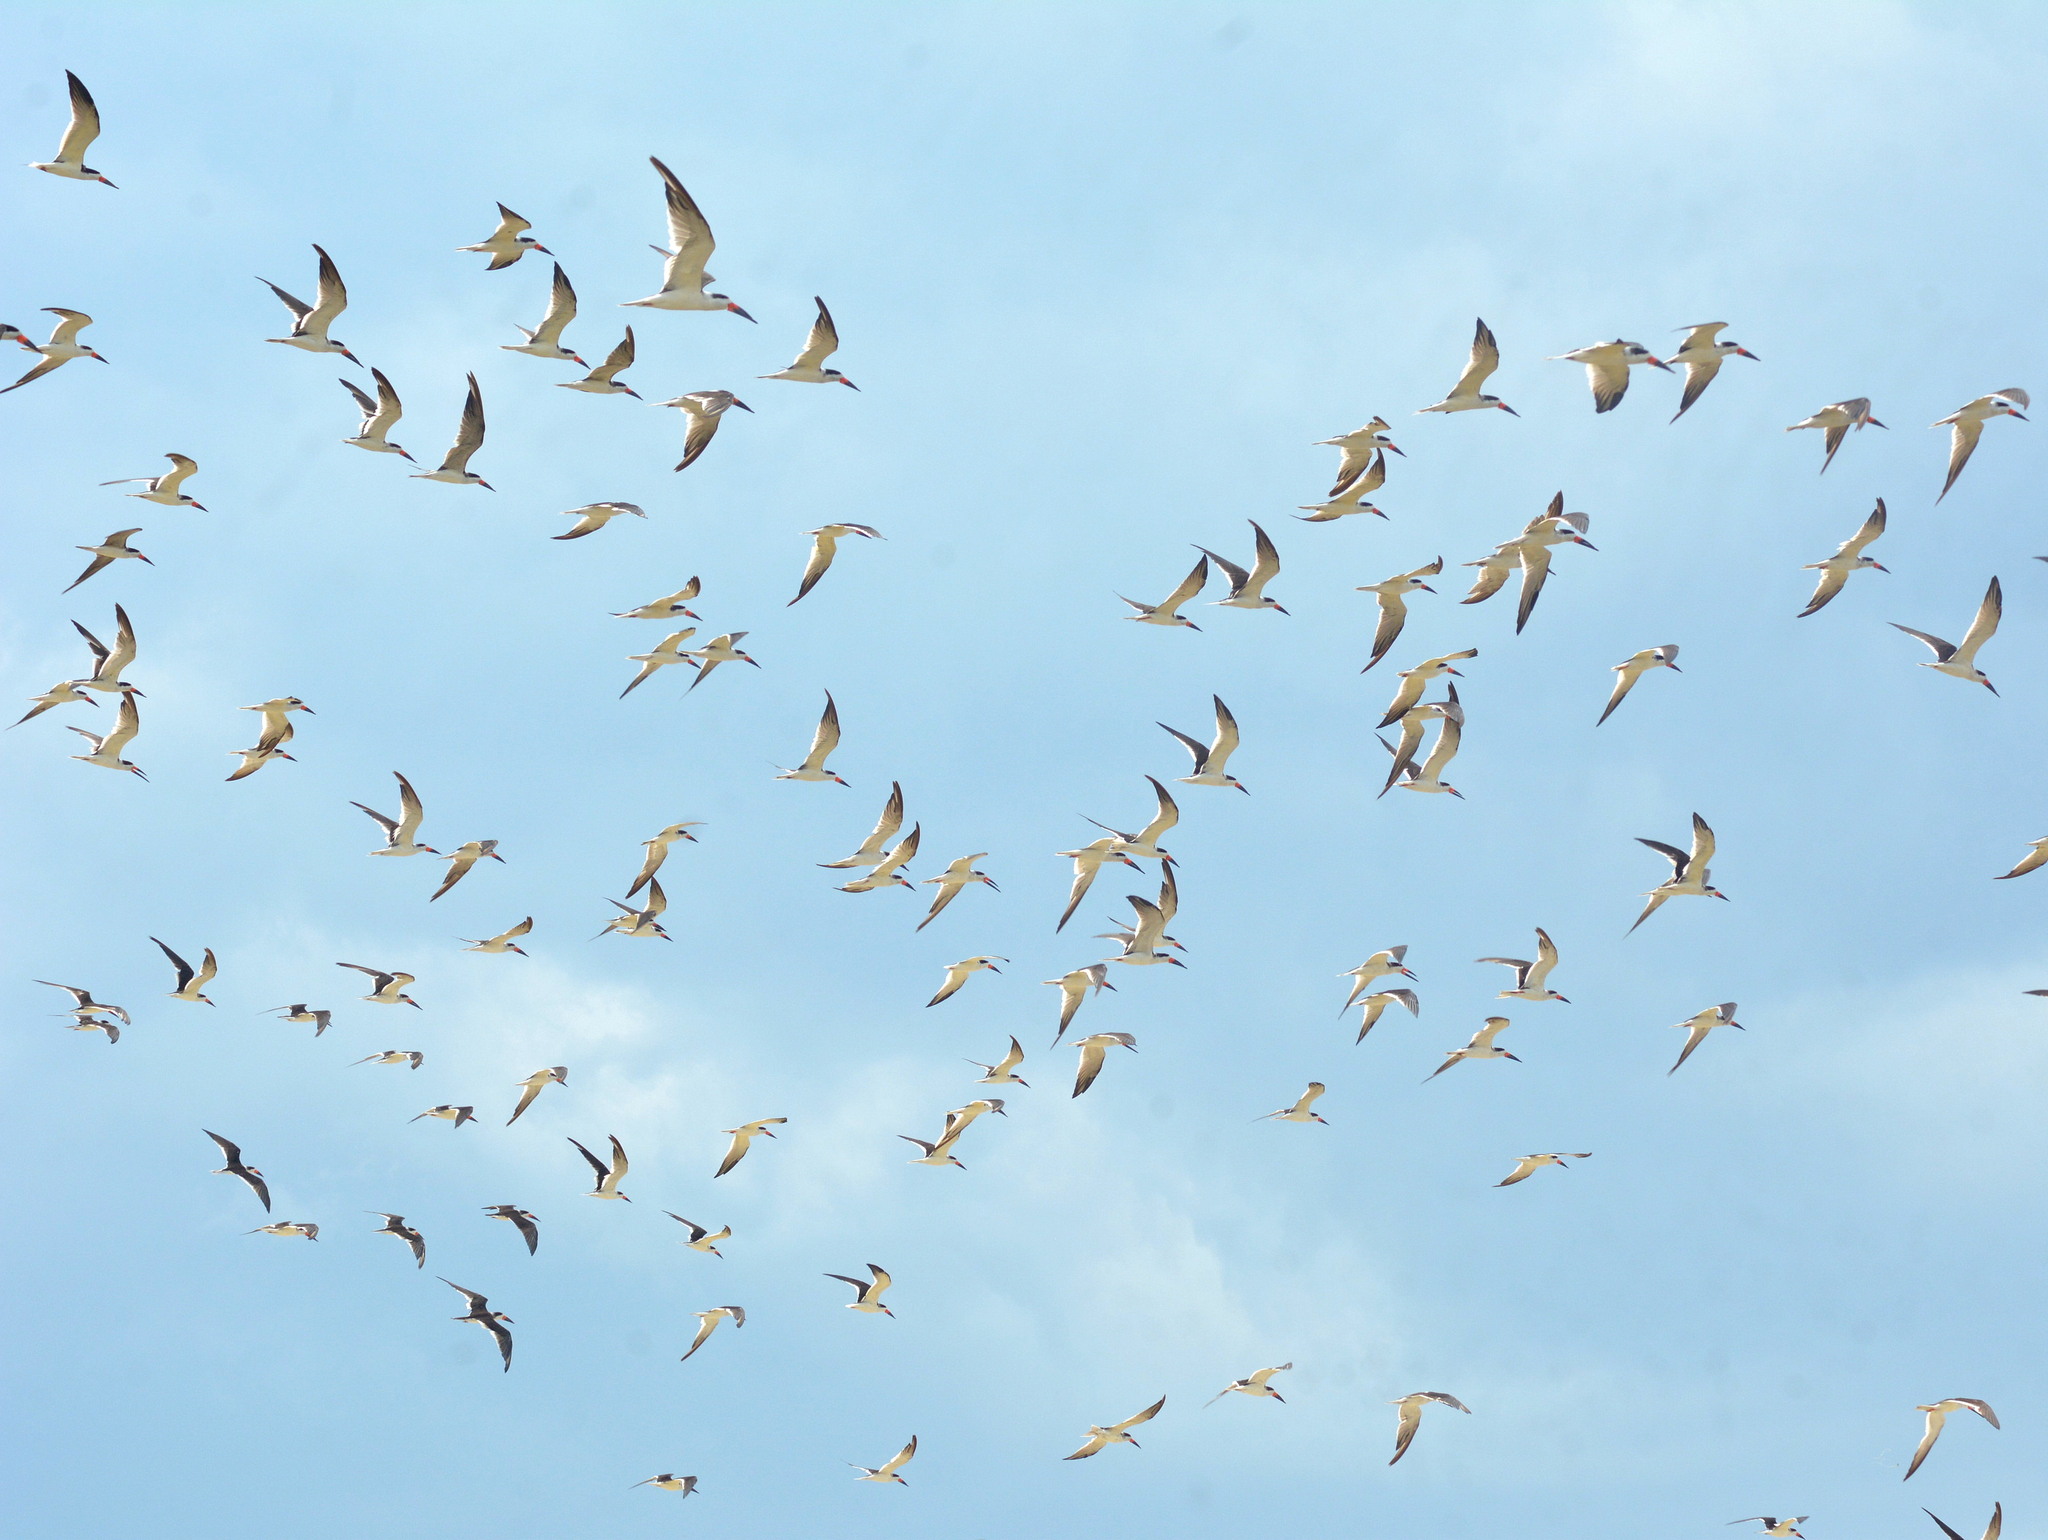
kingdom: Animalia
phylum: Chordata
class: Aves
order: Charadriiformes
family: Laridae
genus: Rynchops
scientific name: Rynchops niger
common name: Black skimmer
